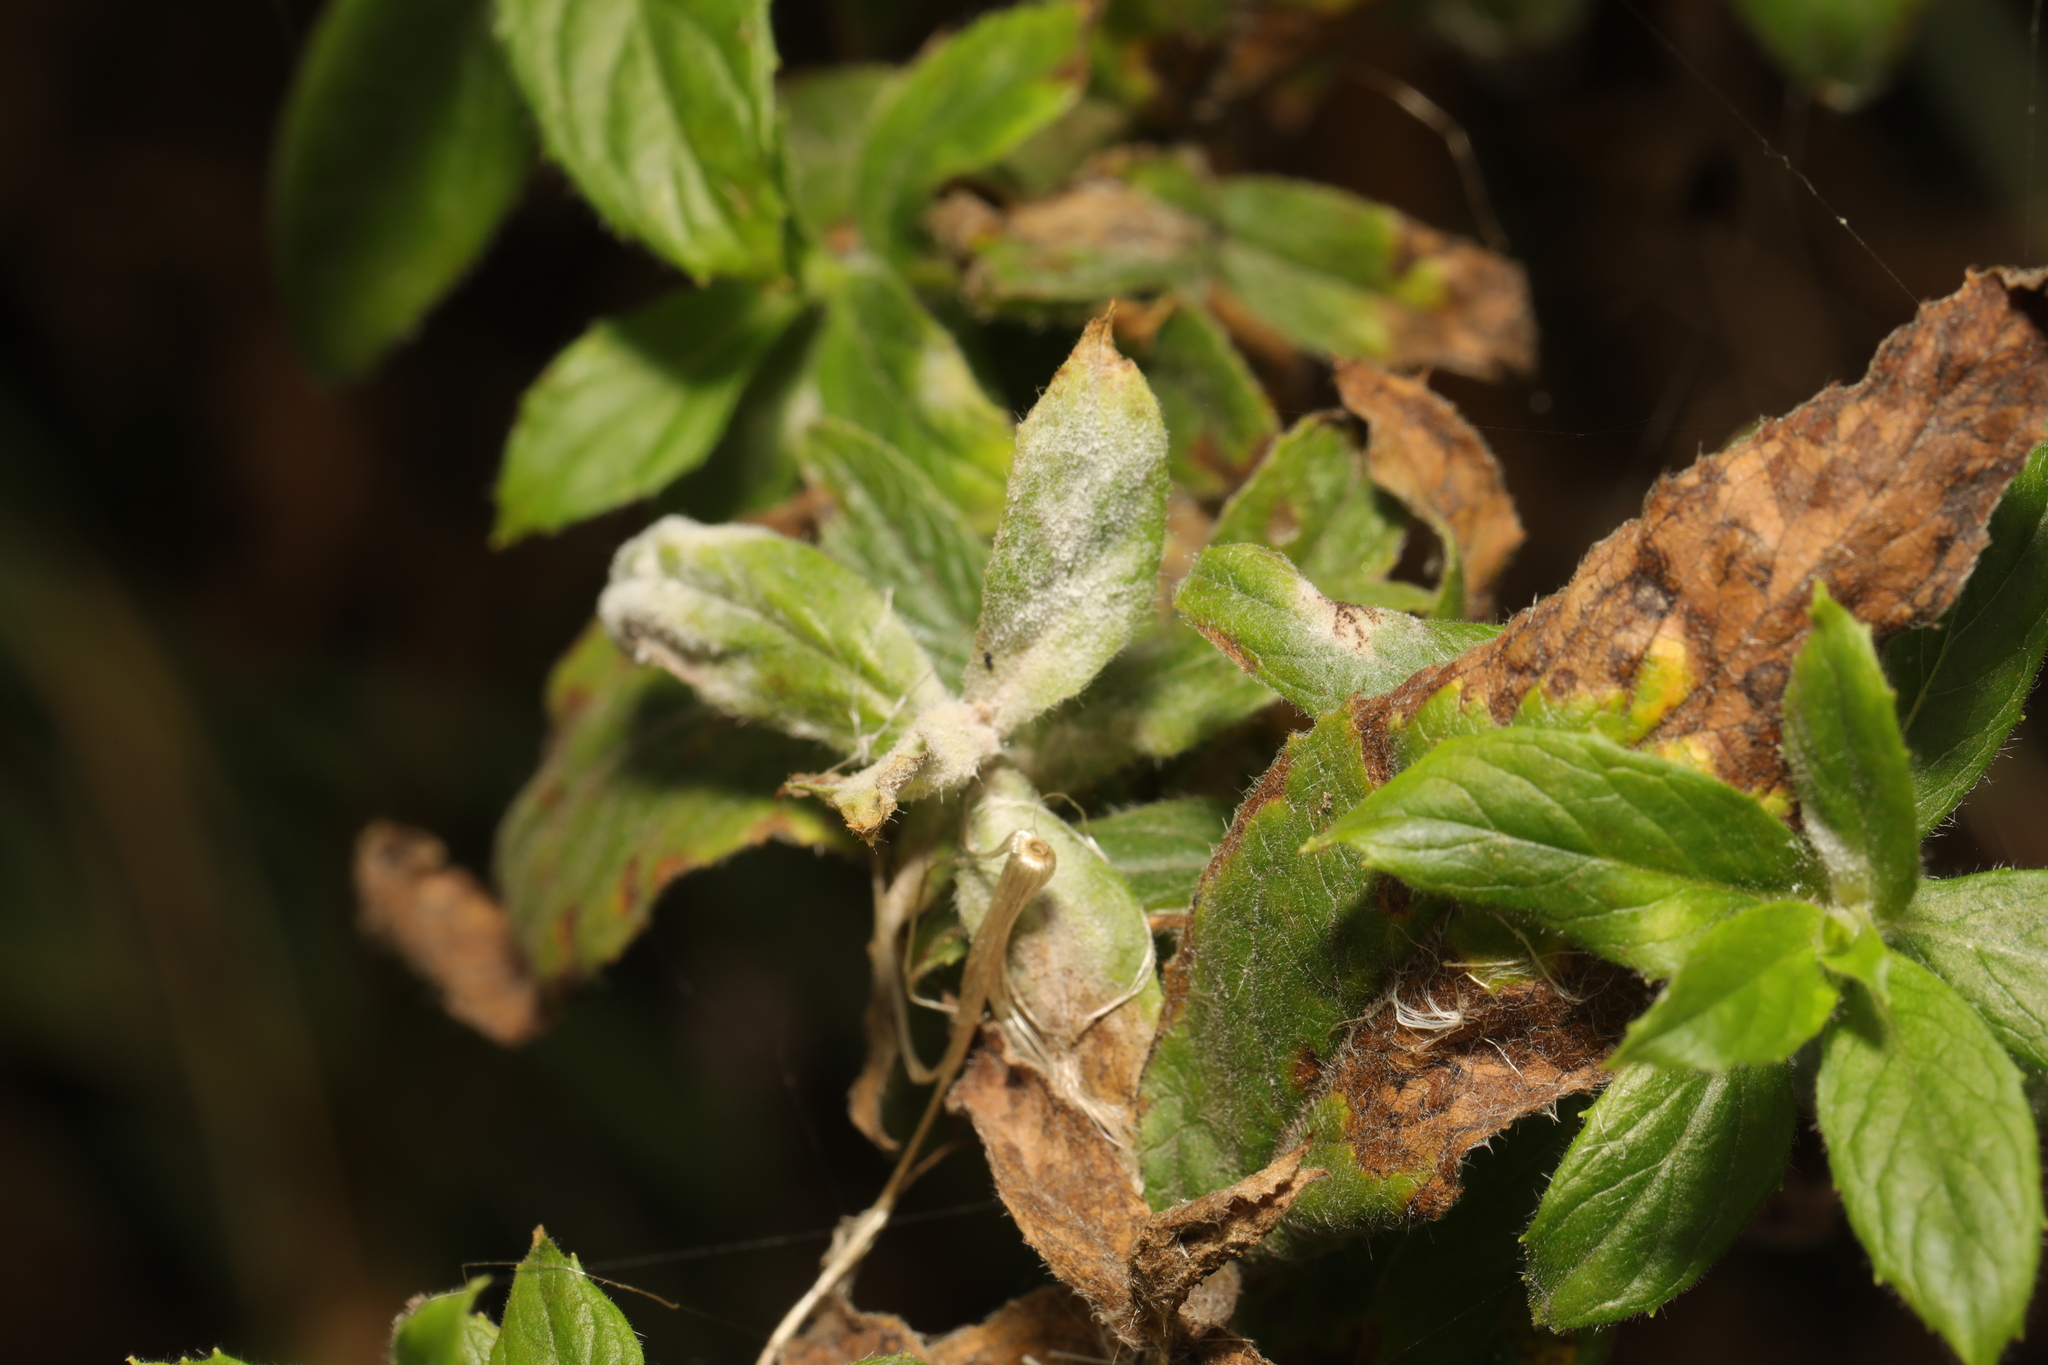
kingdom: Fungi
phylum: Ascomycota
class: Leotiomycetes
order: Helotiales
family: Erysiphaceae
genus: Podosphaera
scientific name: Podosphaera epilobii
